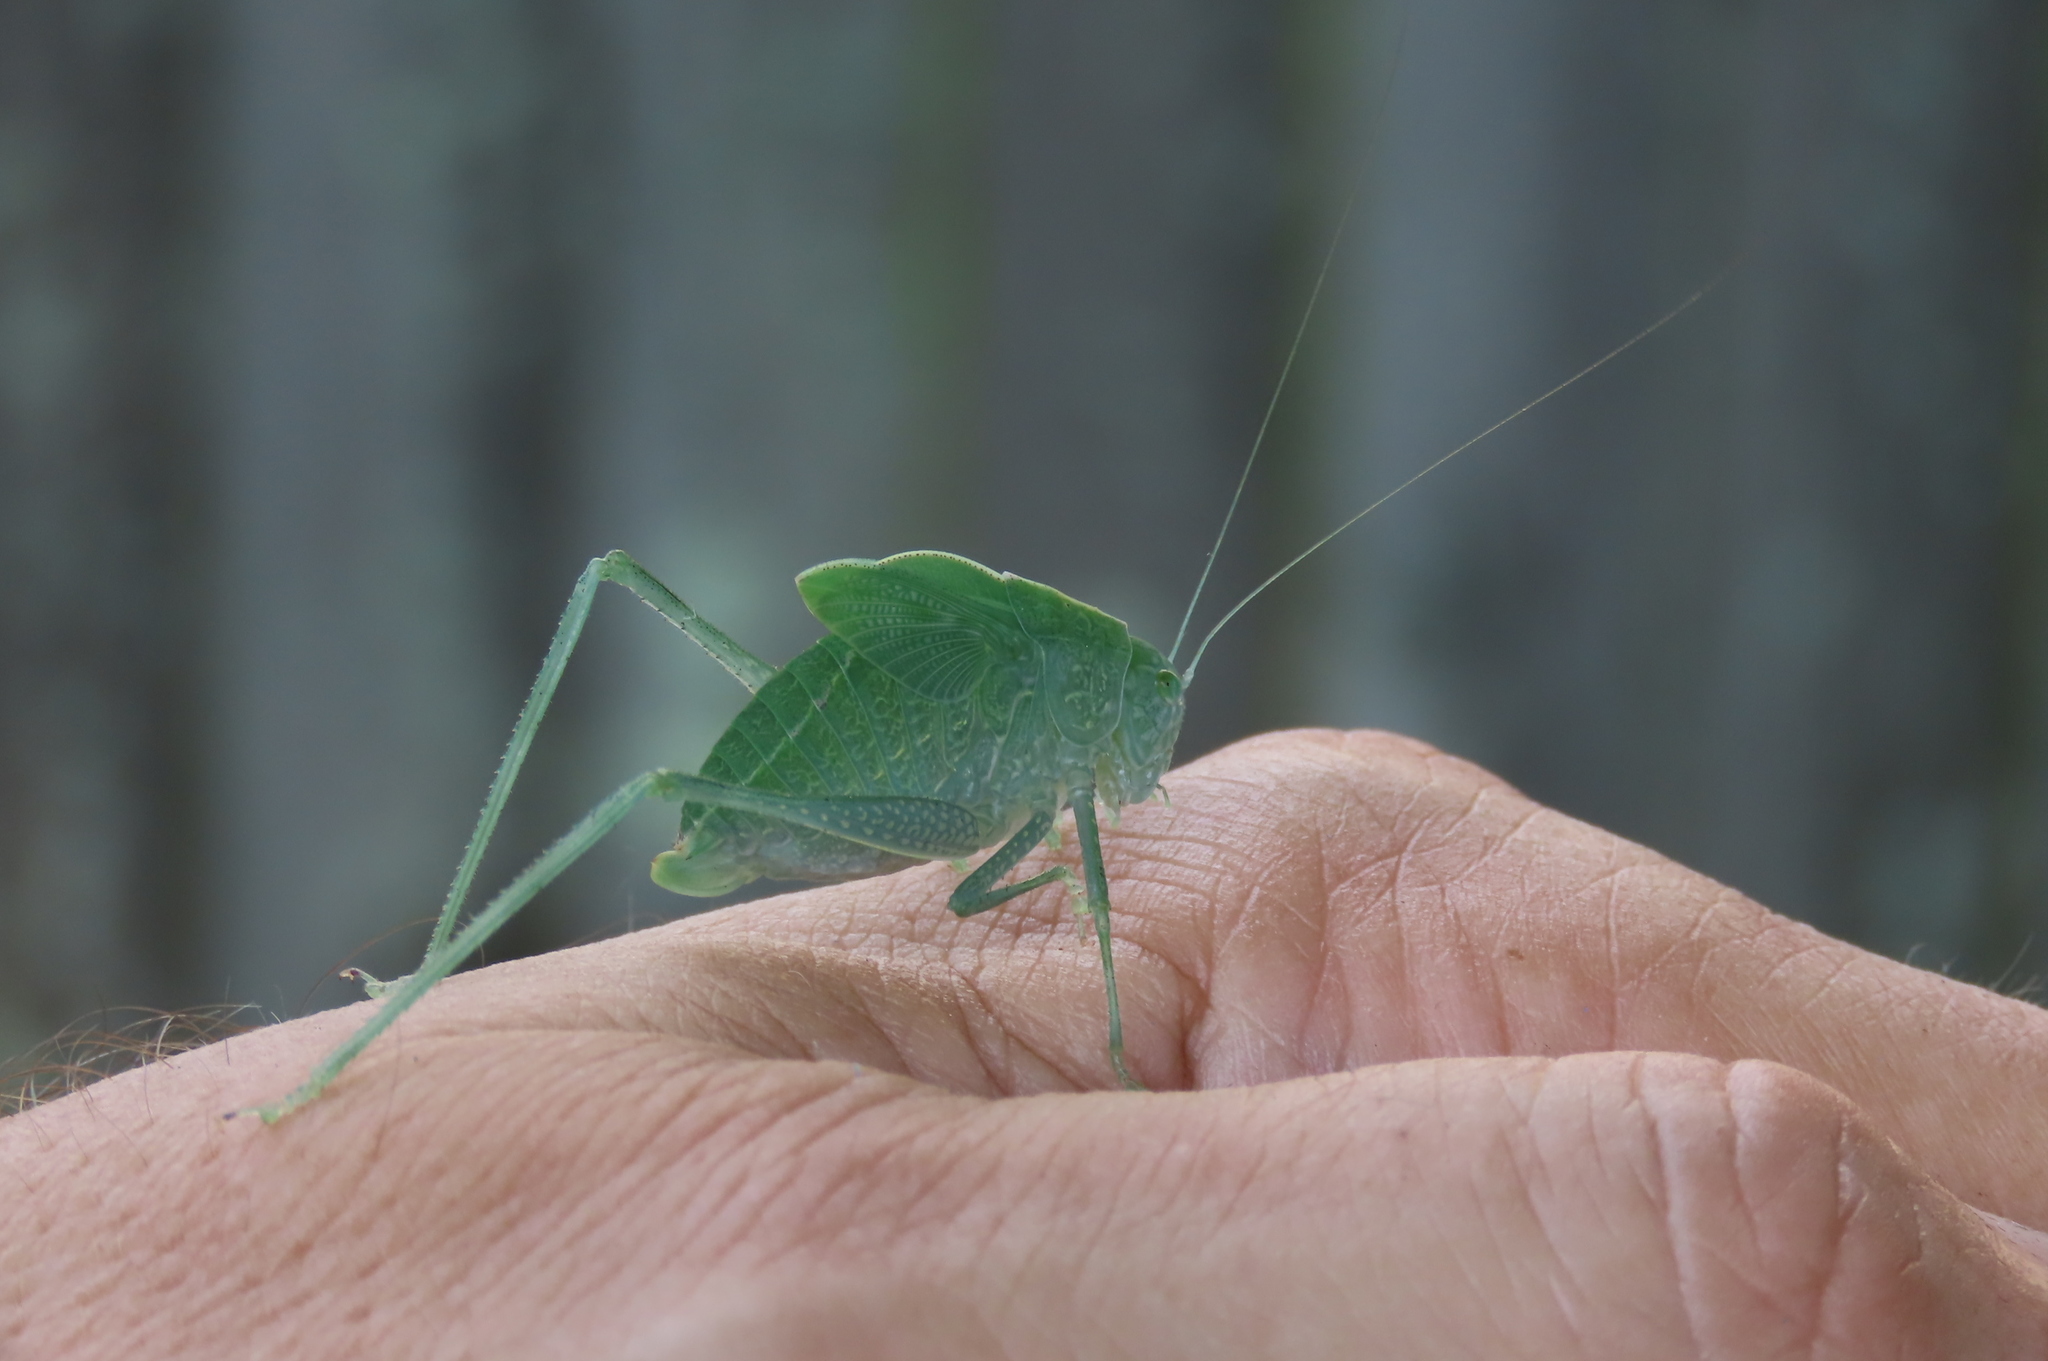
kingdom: Animalia
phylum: Arthropoda
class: Insecta
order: Orthoptera
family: Tettigoniidae
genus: Microcentrum
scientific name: Microcentrum rhombifolium
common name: Broad-winged katydid
